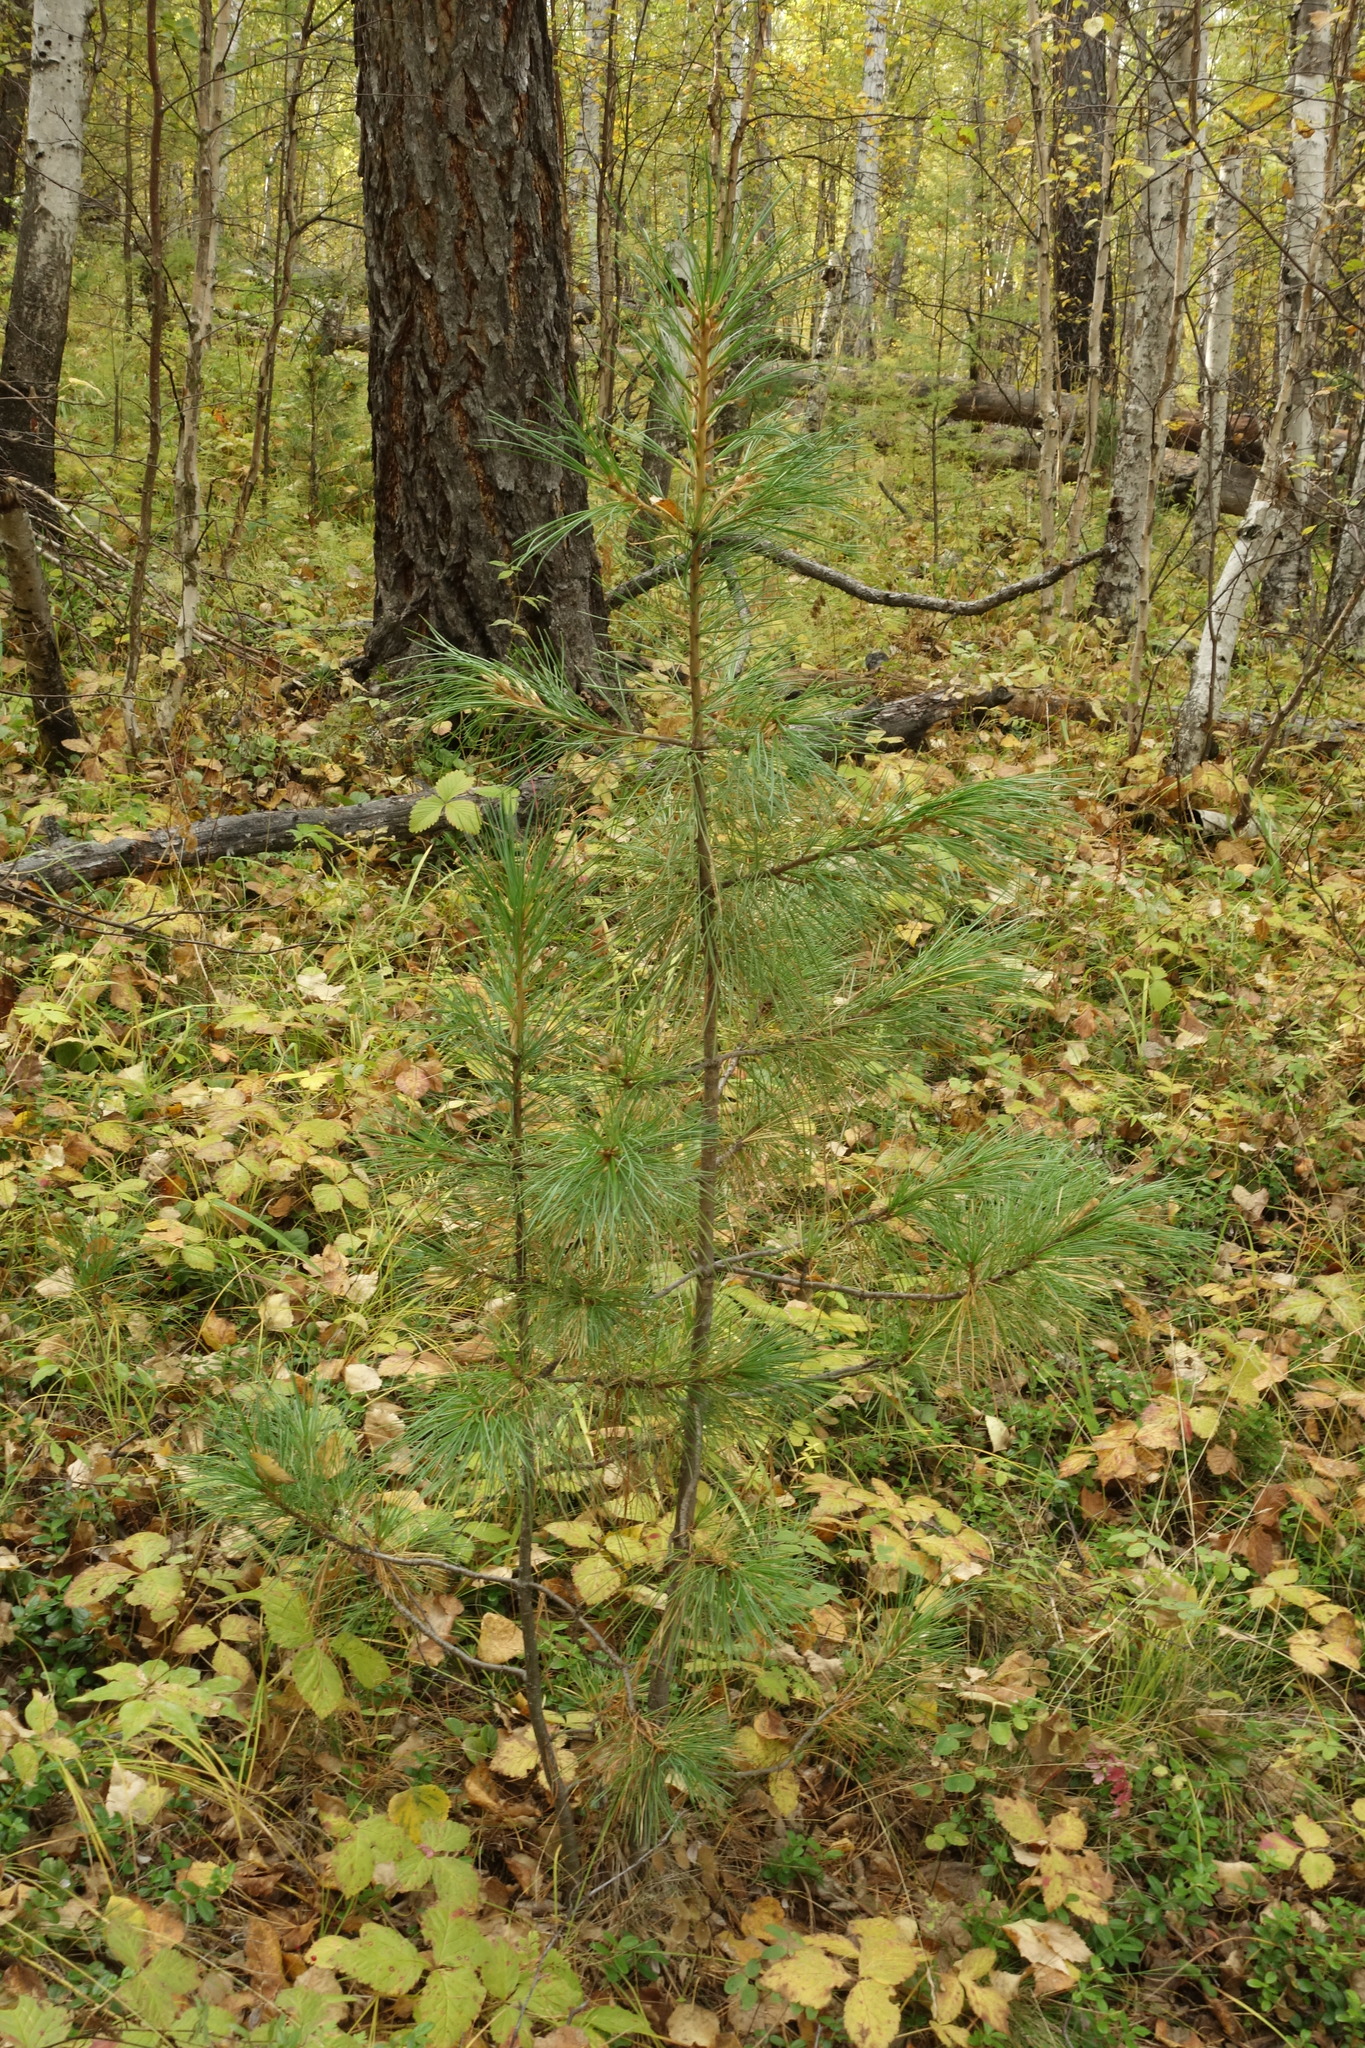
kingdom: Plantae
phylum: Tracheophyta
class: Pinopsida
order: Pinales
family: Pinaceae
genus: Pinus
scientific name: Pinus sibirica
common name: Siberian pine
